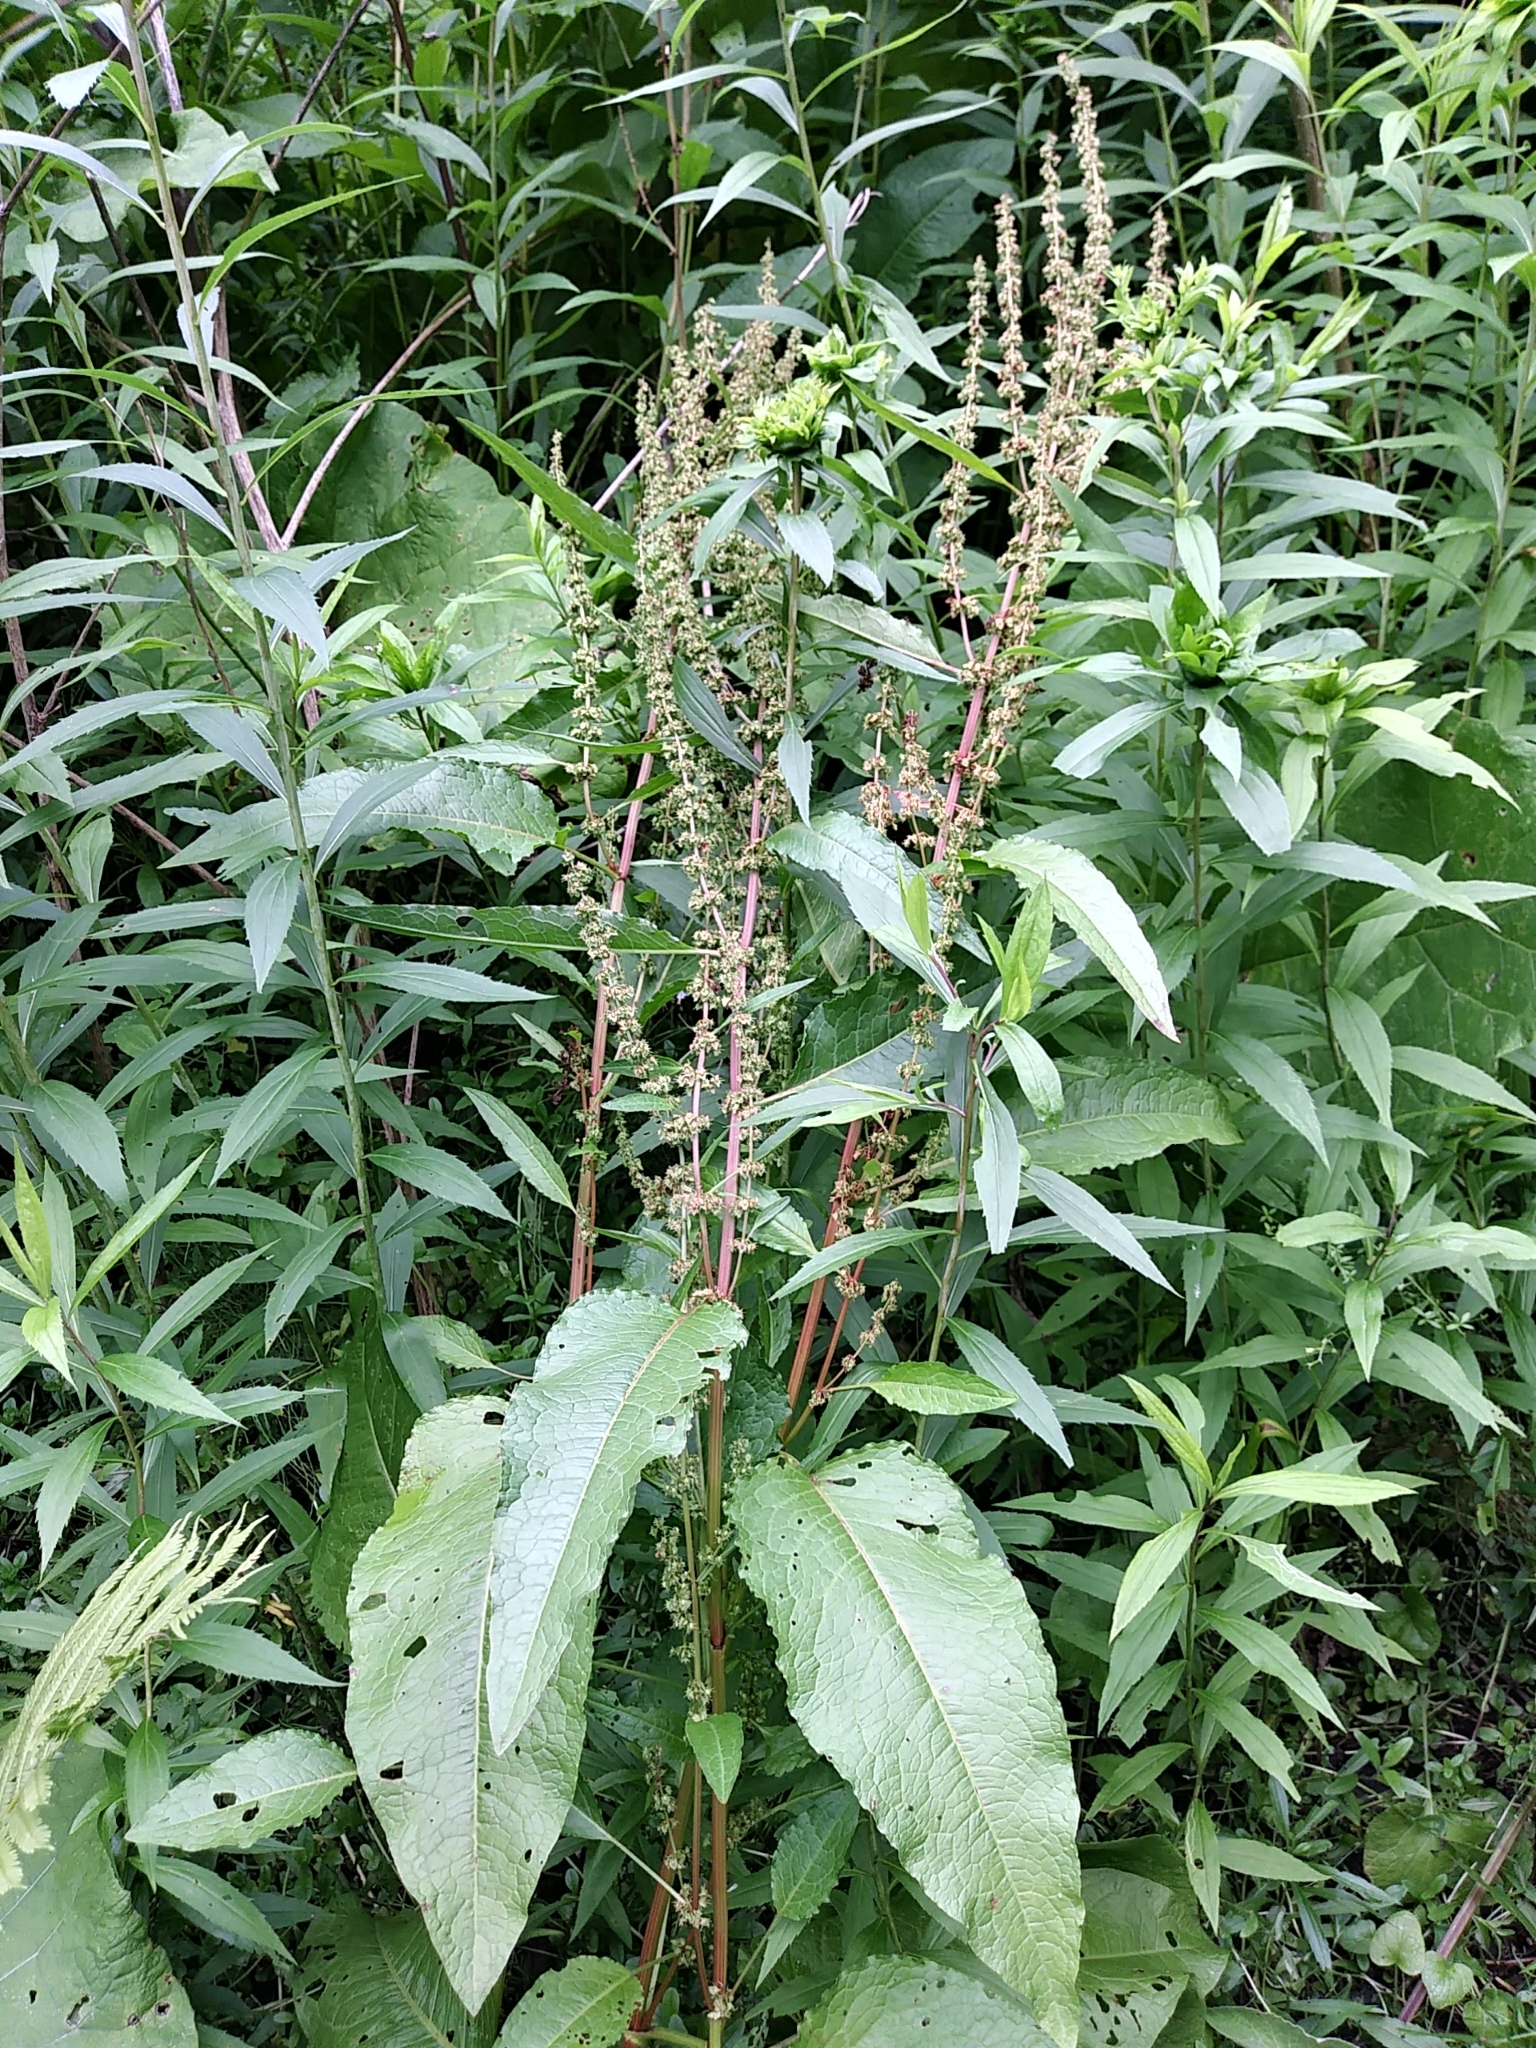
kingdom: Plantae
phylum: Tracheophyta
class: Magnoliopsida
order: Caryophyllales
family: Polygonaceae
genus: Rumex
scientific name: Rumex obtusifolius
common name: Bitter dock
